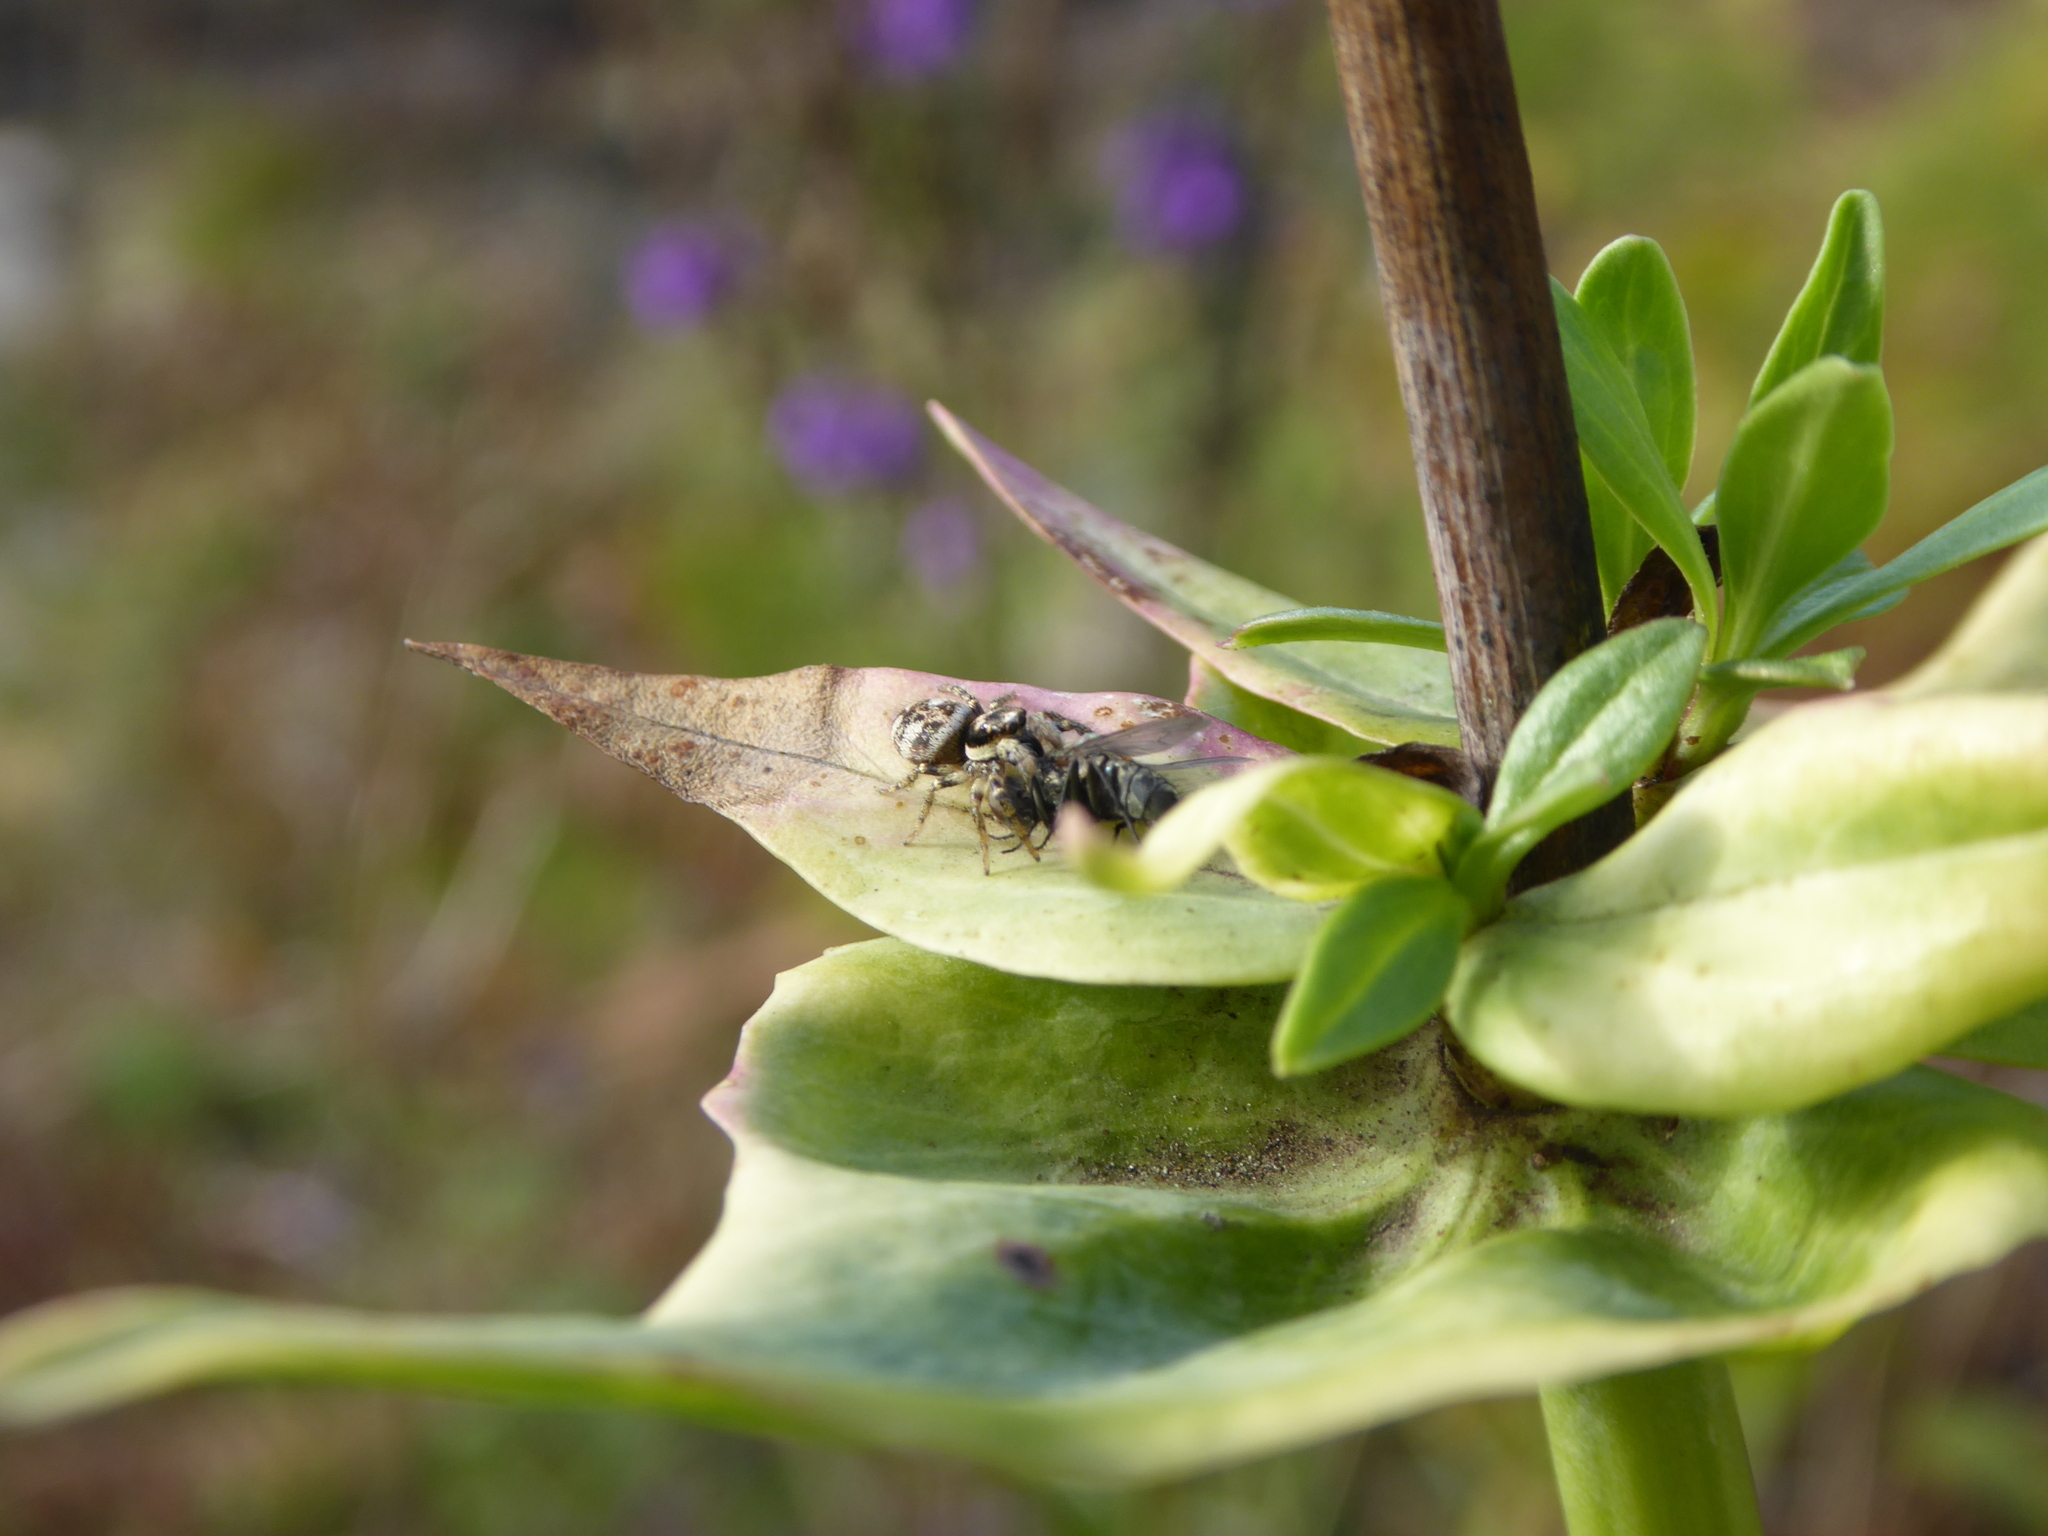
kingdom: Animalia
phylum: Arthropoda
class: Insecta
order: Diptera
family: Polleniidae
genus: Pollenia
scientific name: Pollenia
